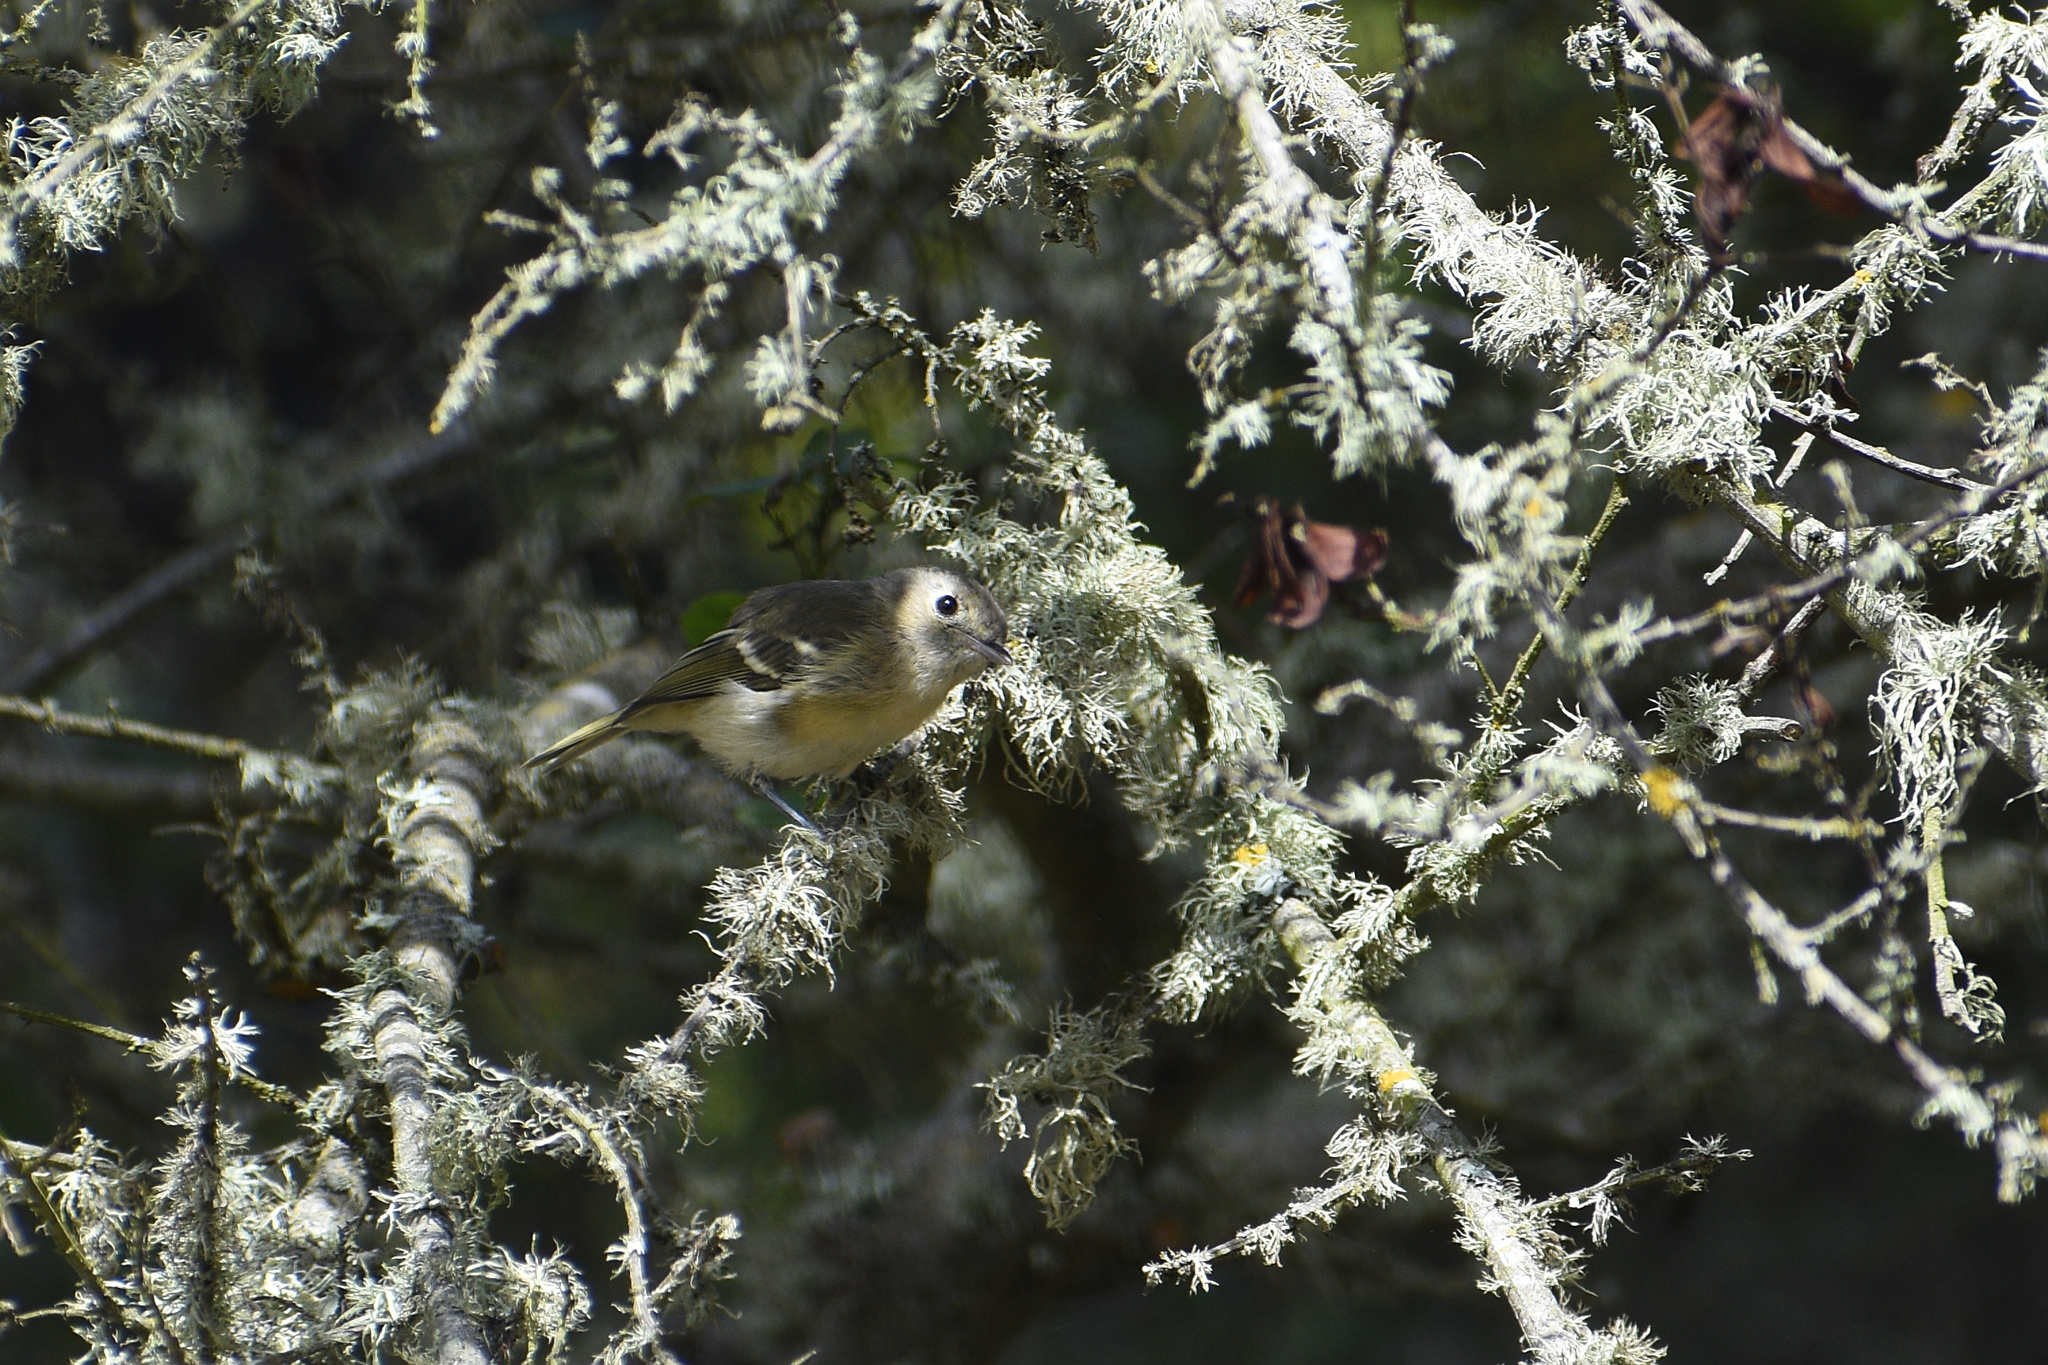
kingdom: Animalia
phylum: Chordata
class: Aves
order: Passeriformes
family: Vireonidae
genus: Vireo
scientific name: Vireo huttoni
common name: Hutton's vireo
